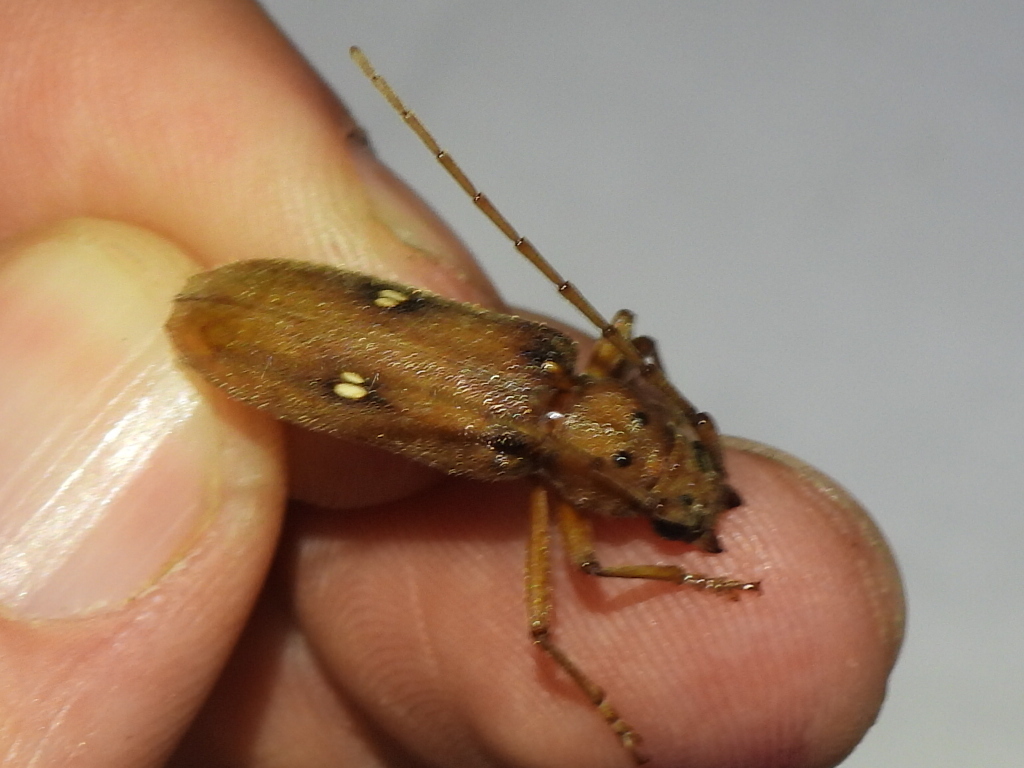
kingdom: Animalia
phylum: Arthropoda
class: Insecta
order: Coleoptera
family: Cerambycidae
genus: Eburia
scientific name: Eburia haldemani
